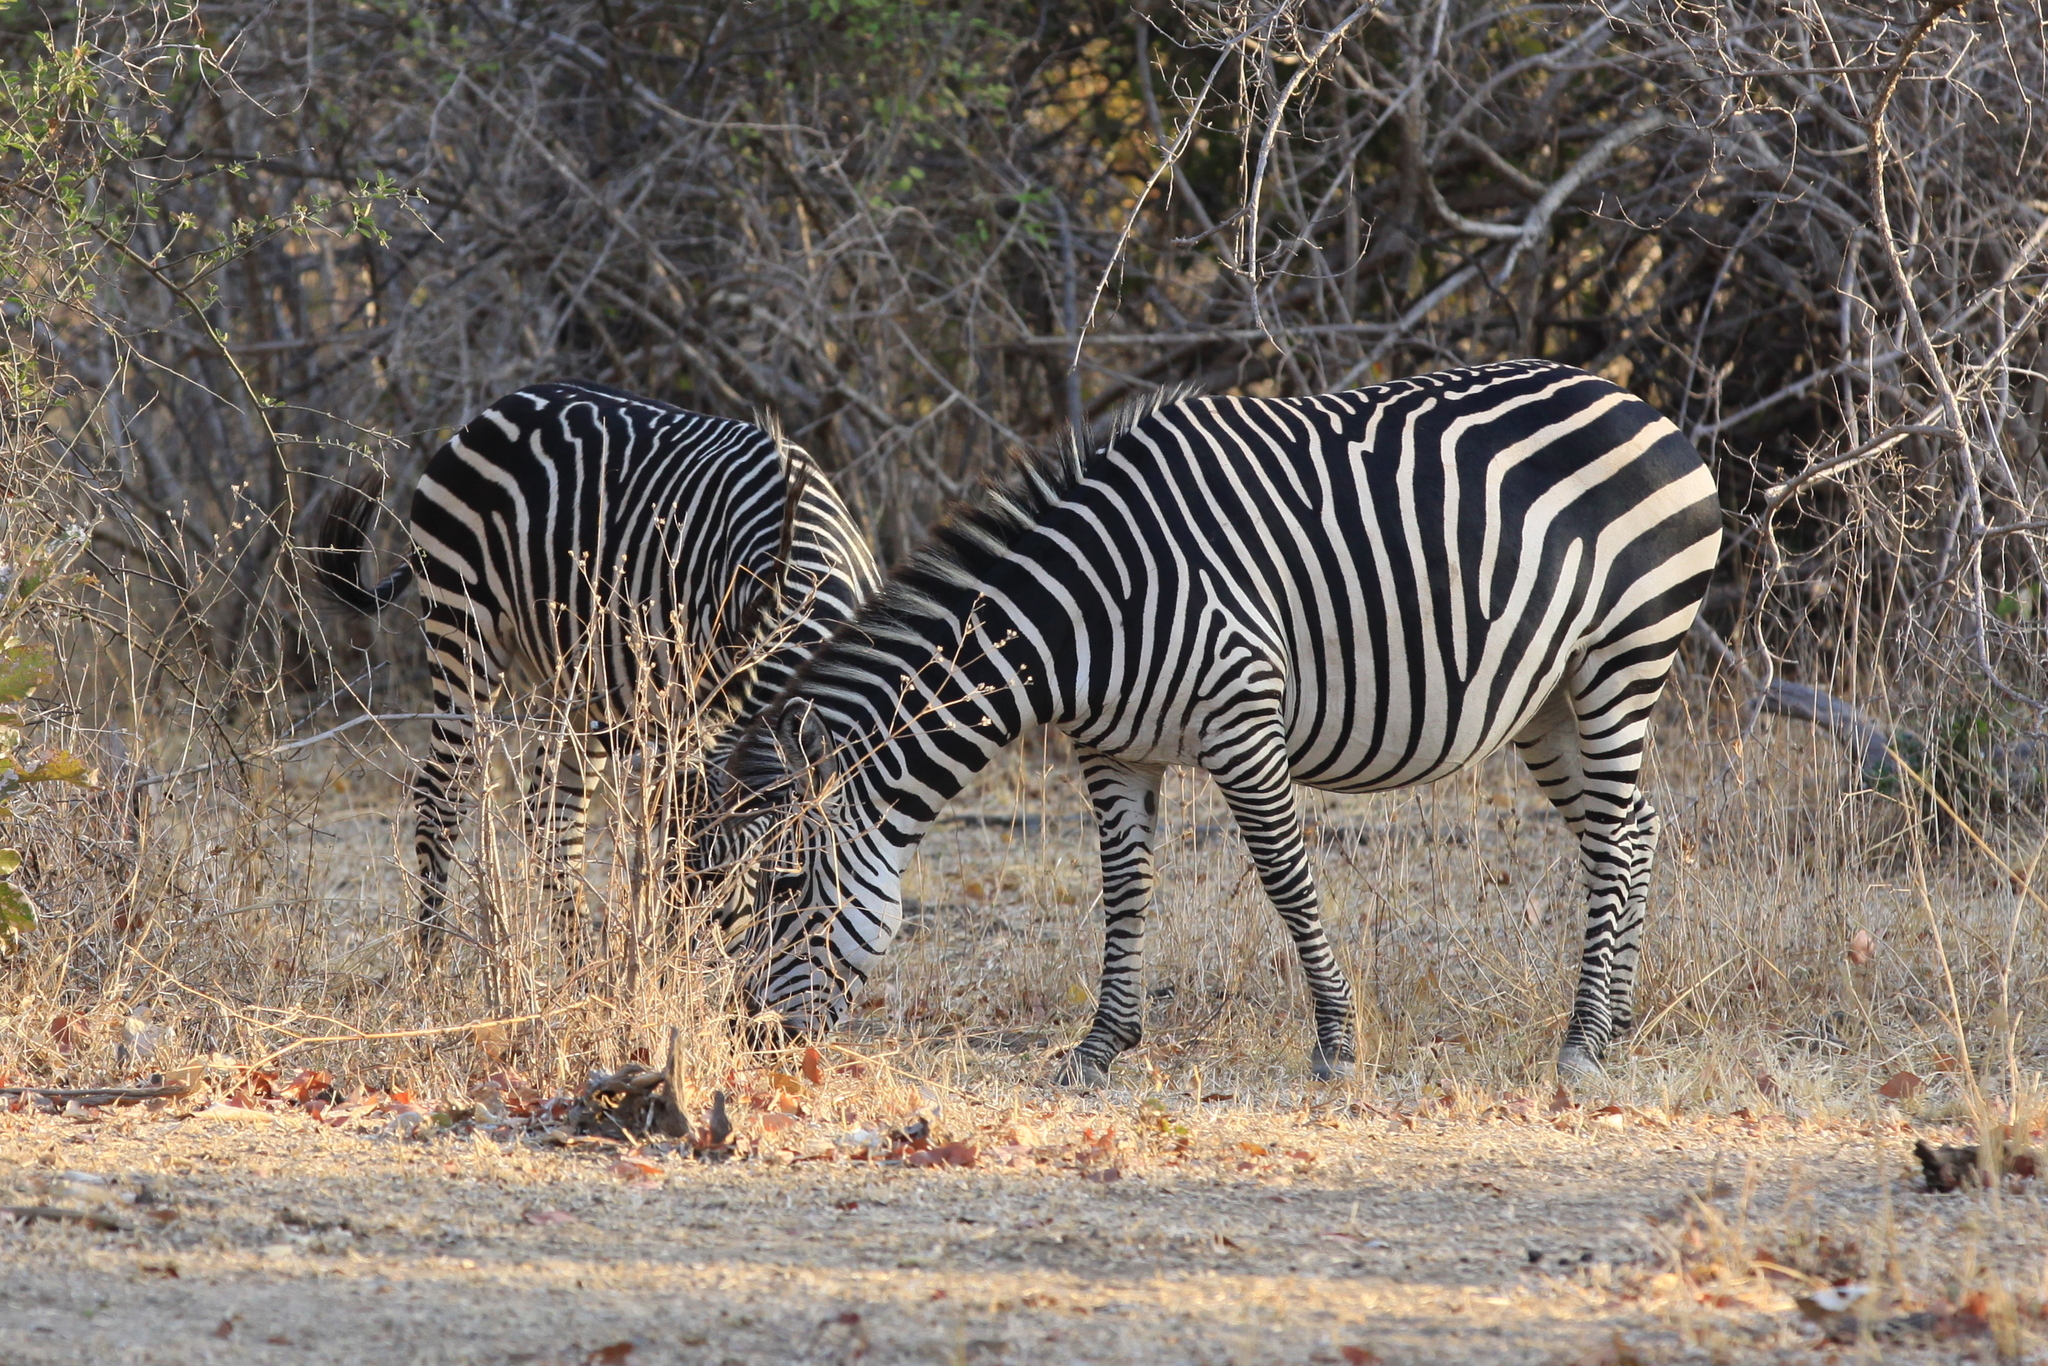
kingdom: Animalia
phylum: Chordata
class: Mammalia
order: Perissodactyla
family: Equidae
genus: Equus
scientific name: Equus quagga
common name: Plains zebra
